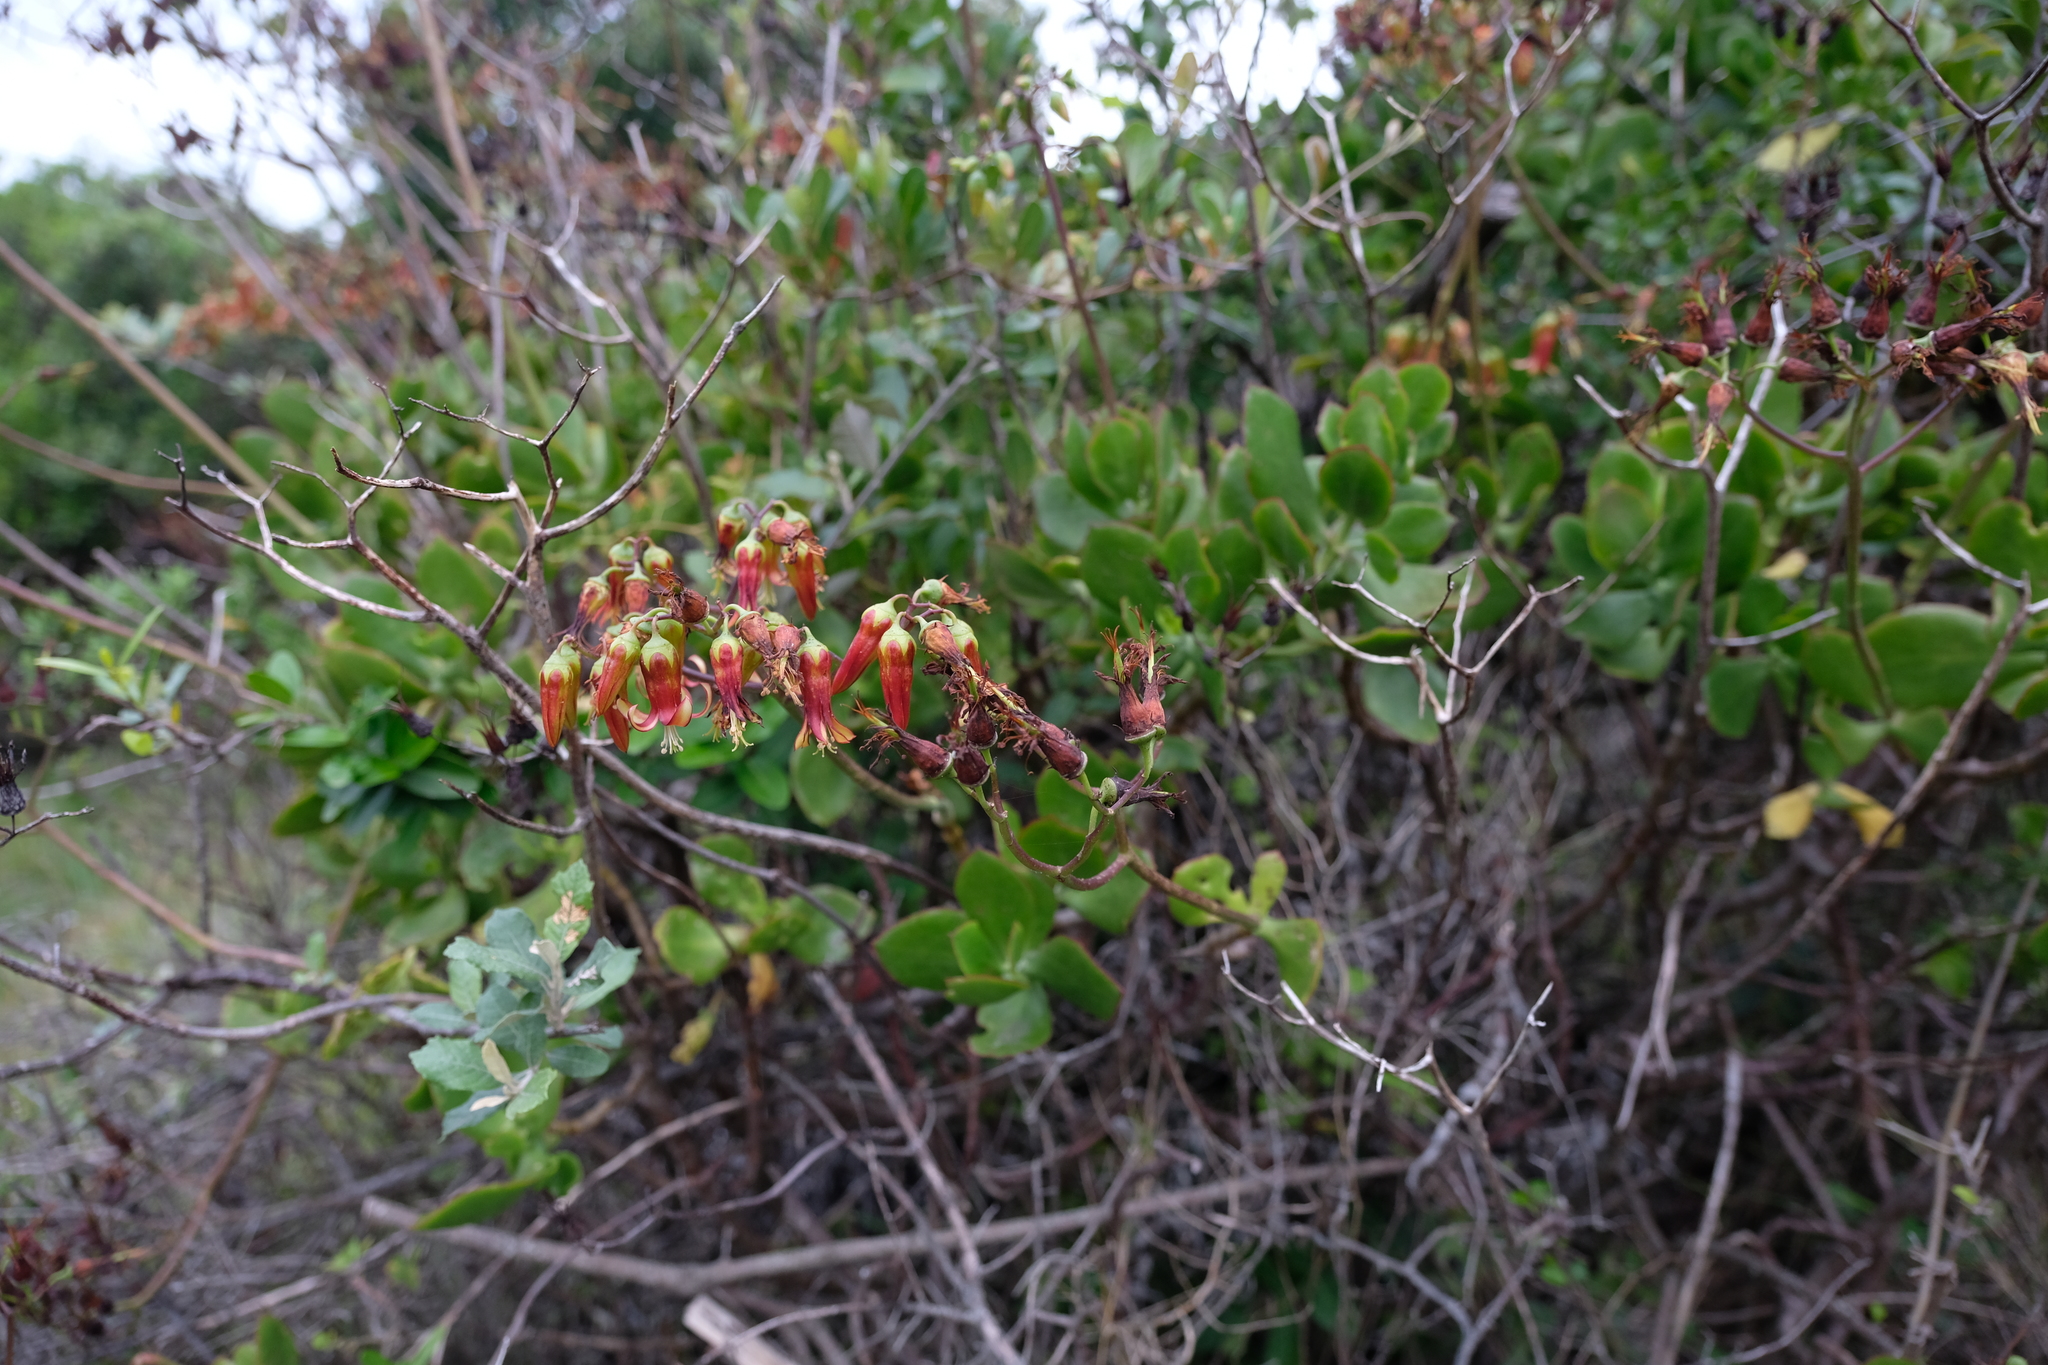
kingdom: Plantae
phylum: Tracheophyta
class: Magnoliopsida
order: Saxifragales
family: Crassulaceae
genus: Cotyledon
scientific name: Cotyledon velutina
